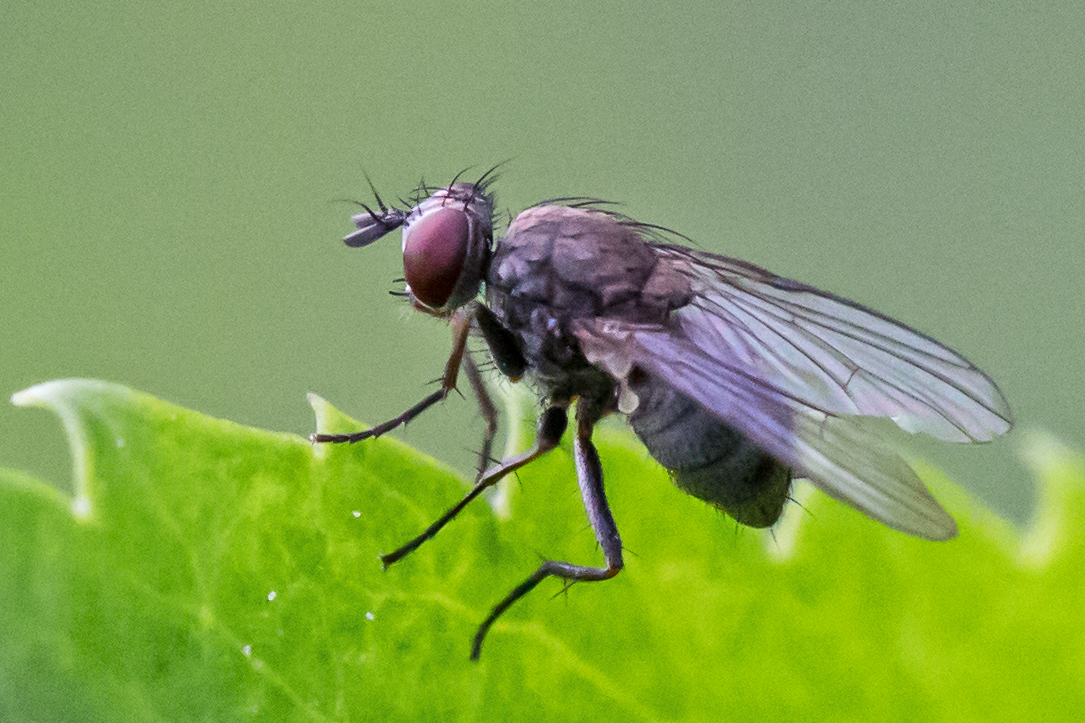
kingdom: Animalia
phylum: Arthropoda
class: Insecta
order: Diptera
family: Muscidae
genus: Coenosia
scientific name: Coenosia tigrina
